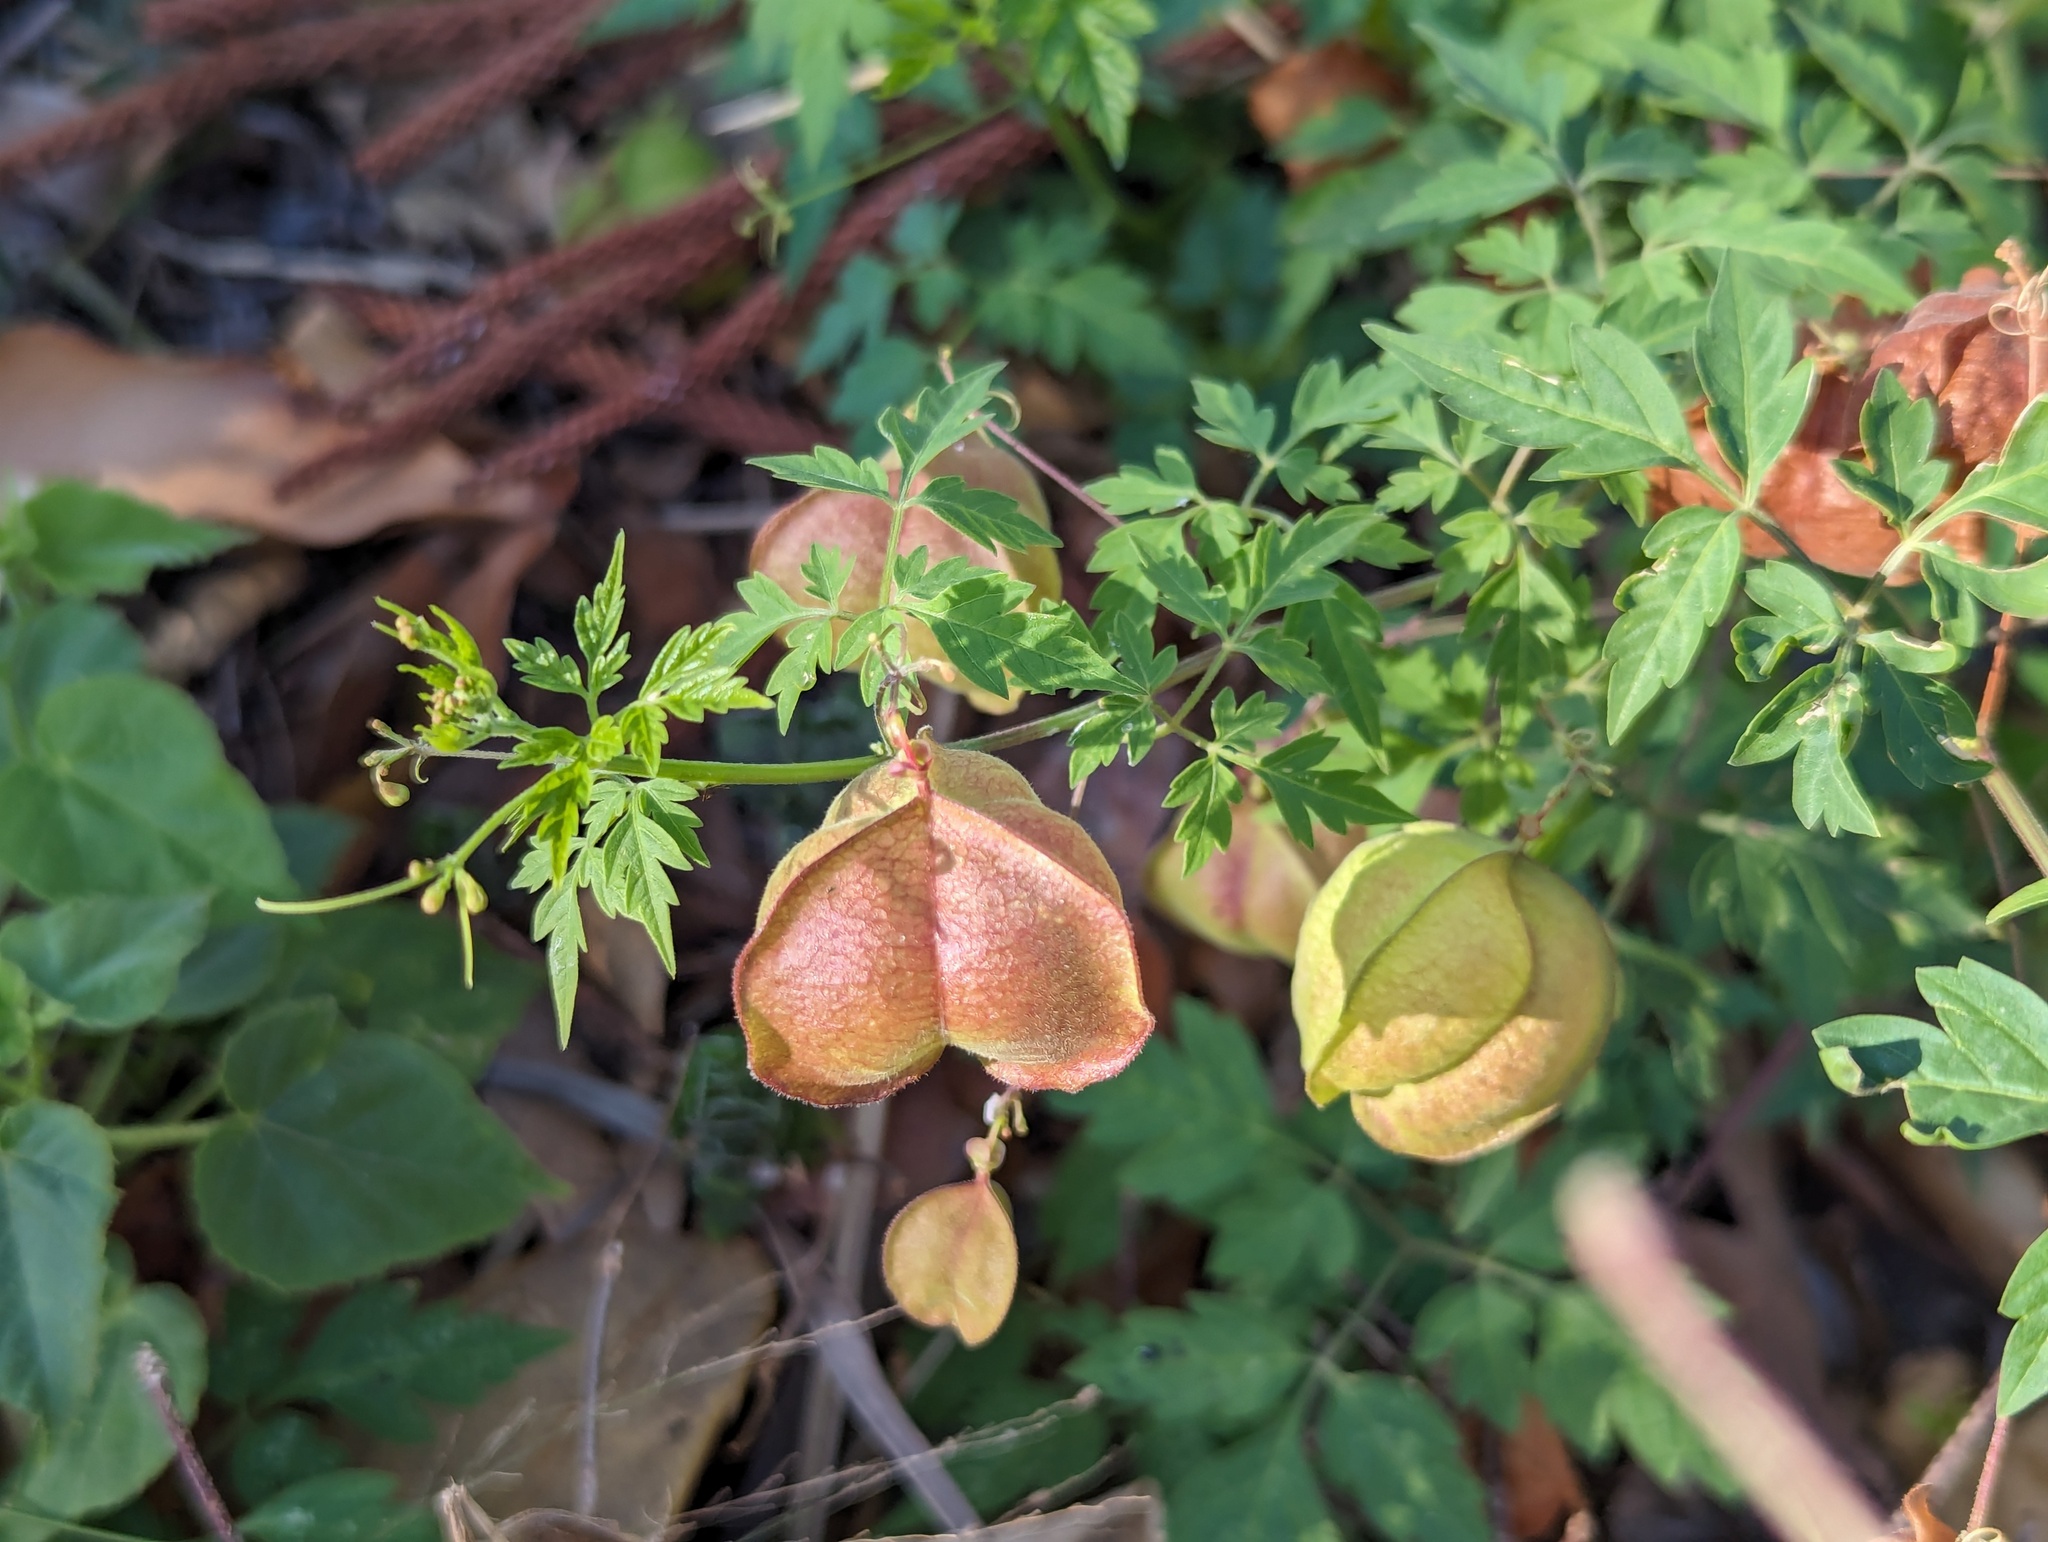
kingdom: Plantae
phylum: Tracheophyta
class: Magnoliopsida
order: Sapindales
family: Sapindaceae
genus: Cardiospermum
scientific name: Cardiospermum halicacabum
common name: Balloon vine
